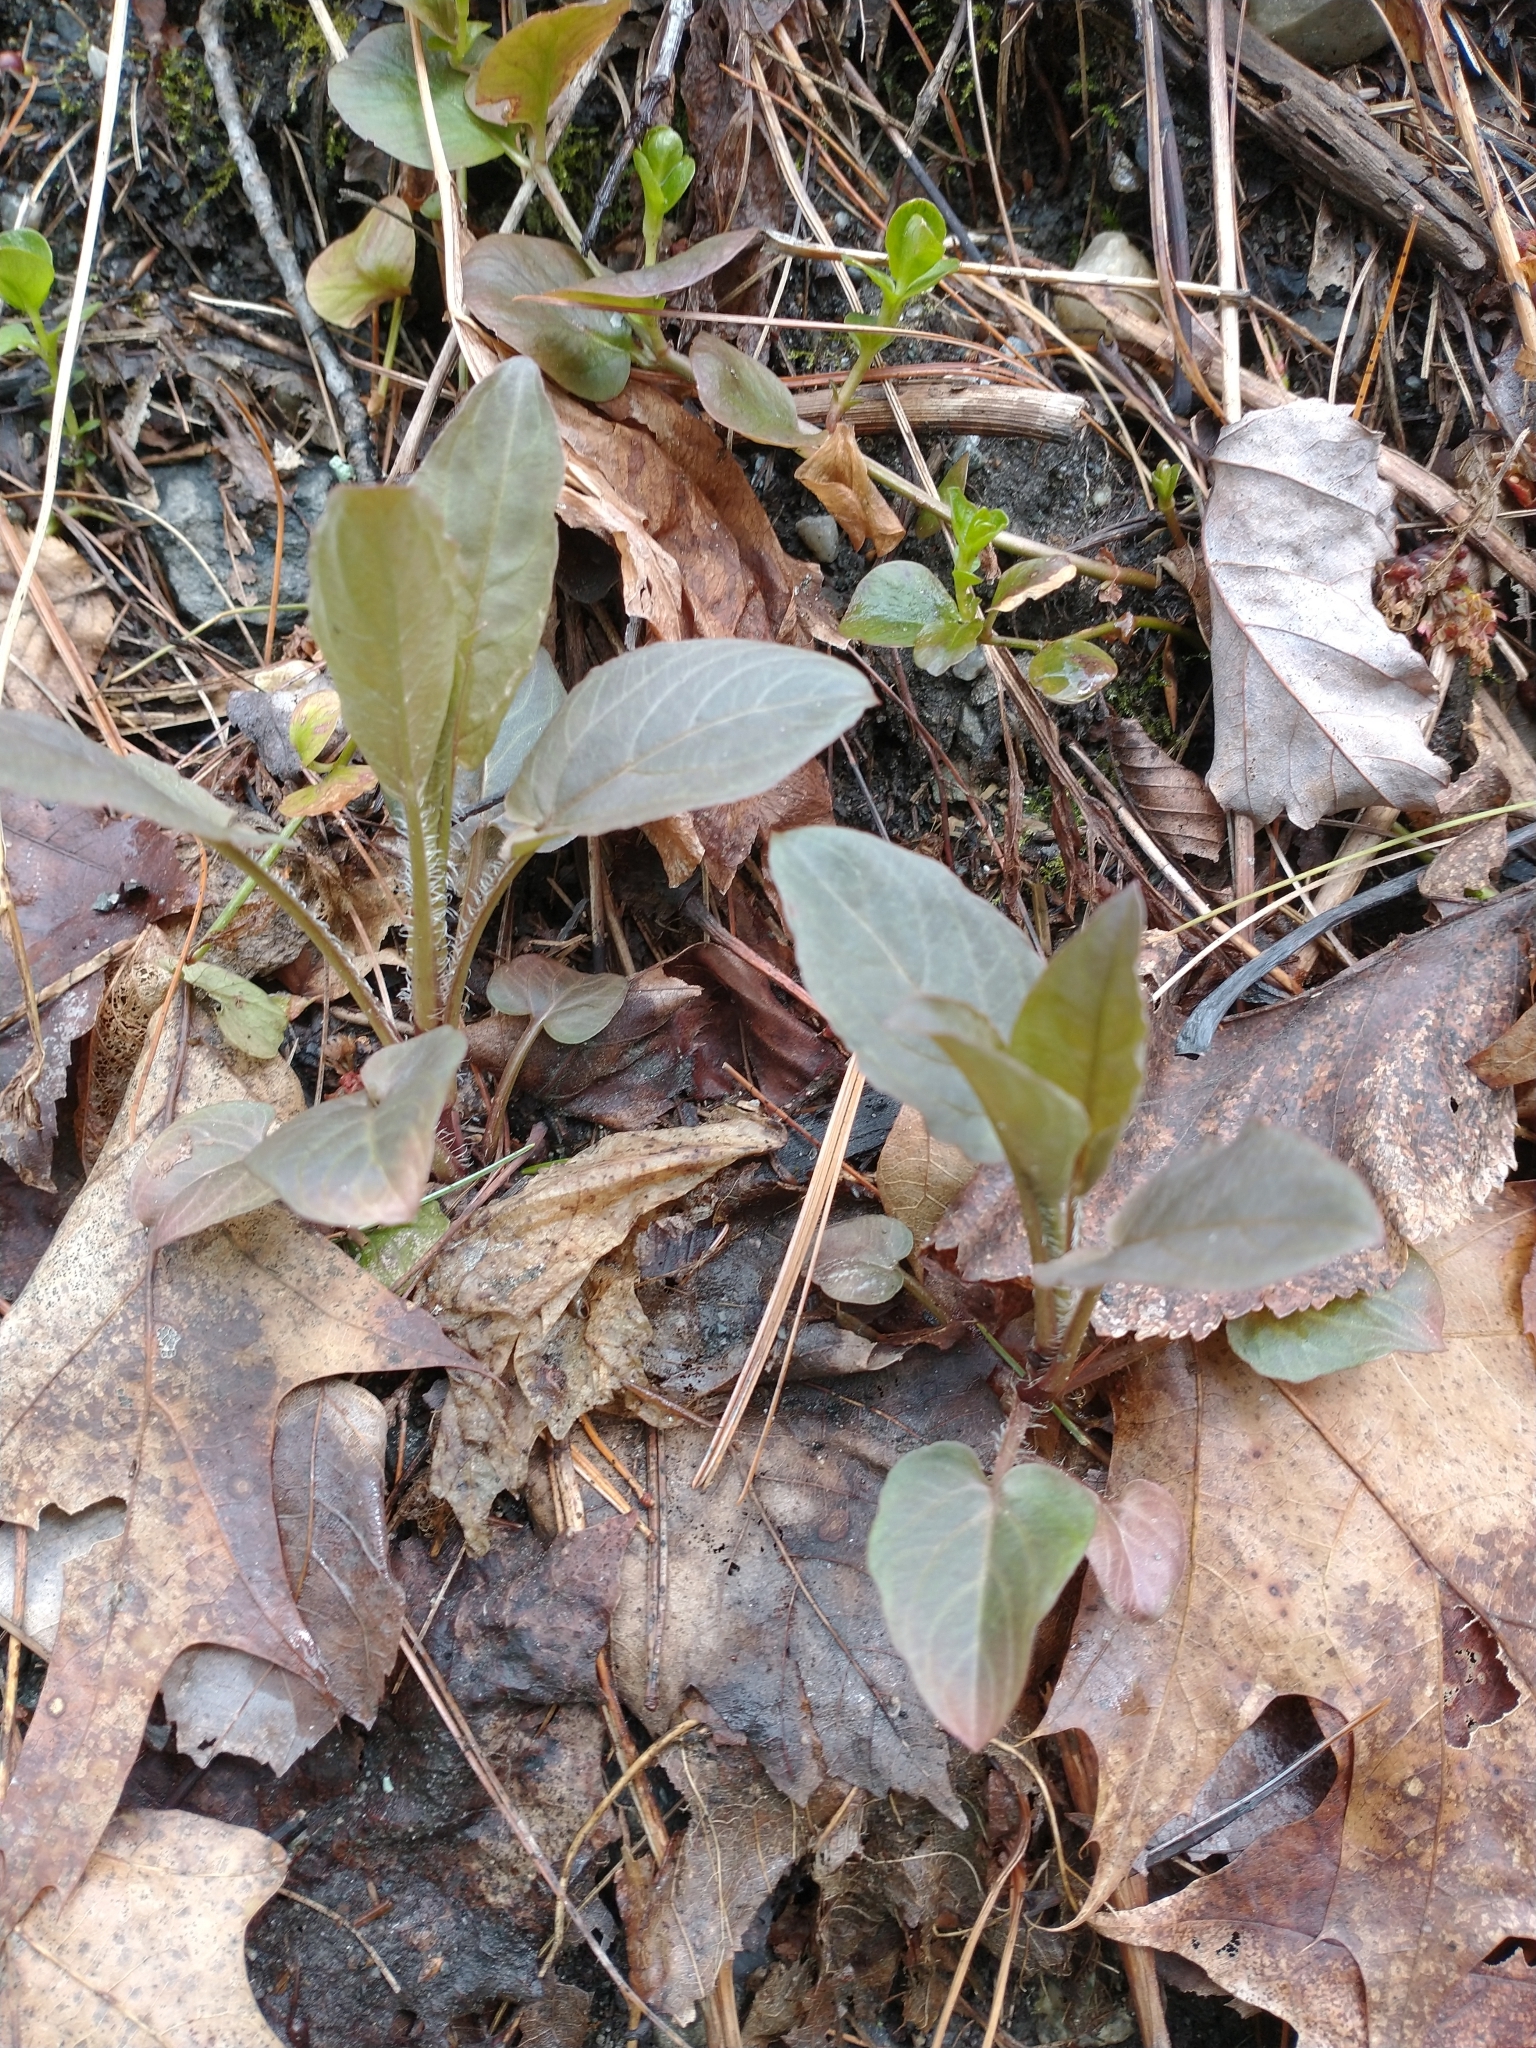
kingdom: Plantae
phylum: Tracheophyta
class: Magnoliopsida
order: Ericales
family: Primulaceae
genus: Lysimachia
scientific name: Lysimachia ciliata
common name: Fringed loosestrife
